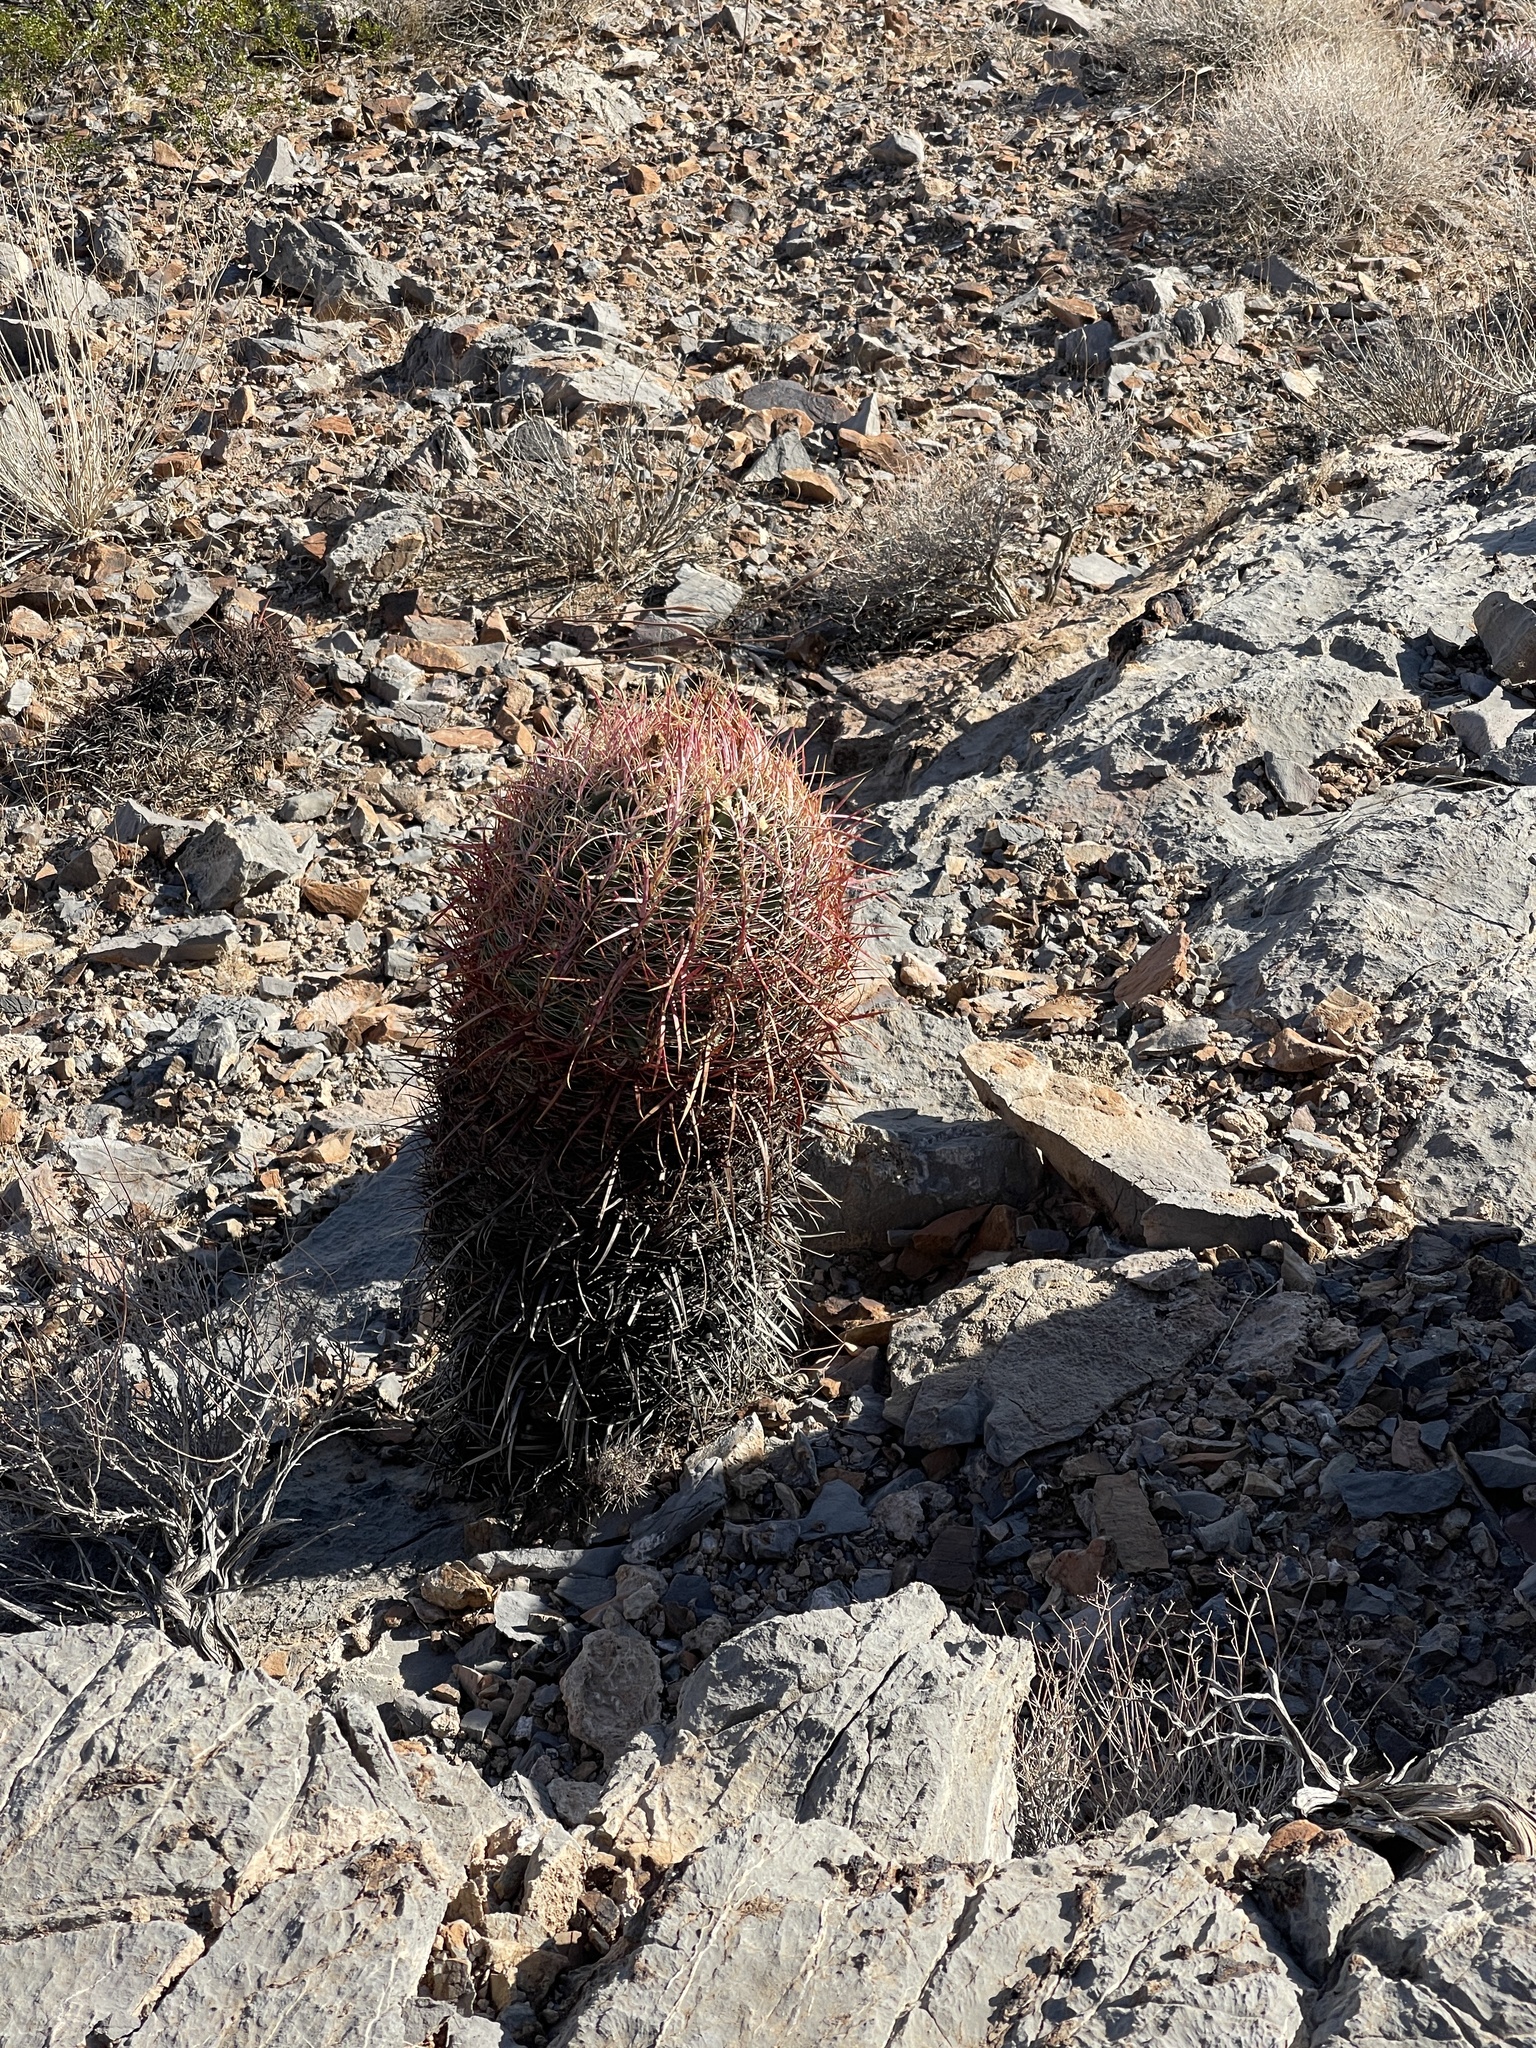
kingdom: Plantae
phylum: Tracheophyta
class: Magnoliopsida
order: Caryophyllales
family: Cactaceae
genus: Ferocactus
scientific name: Ferocactus cylindraceus
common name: California barrel cactus
